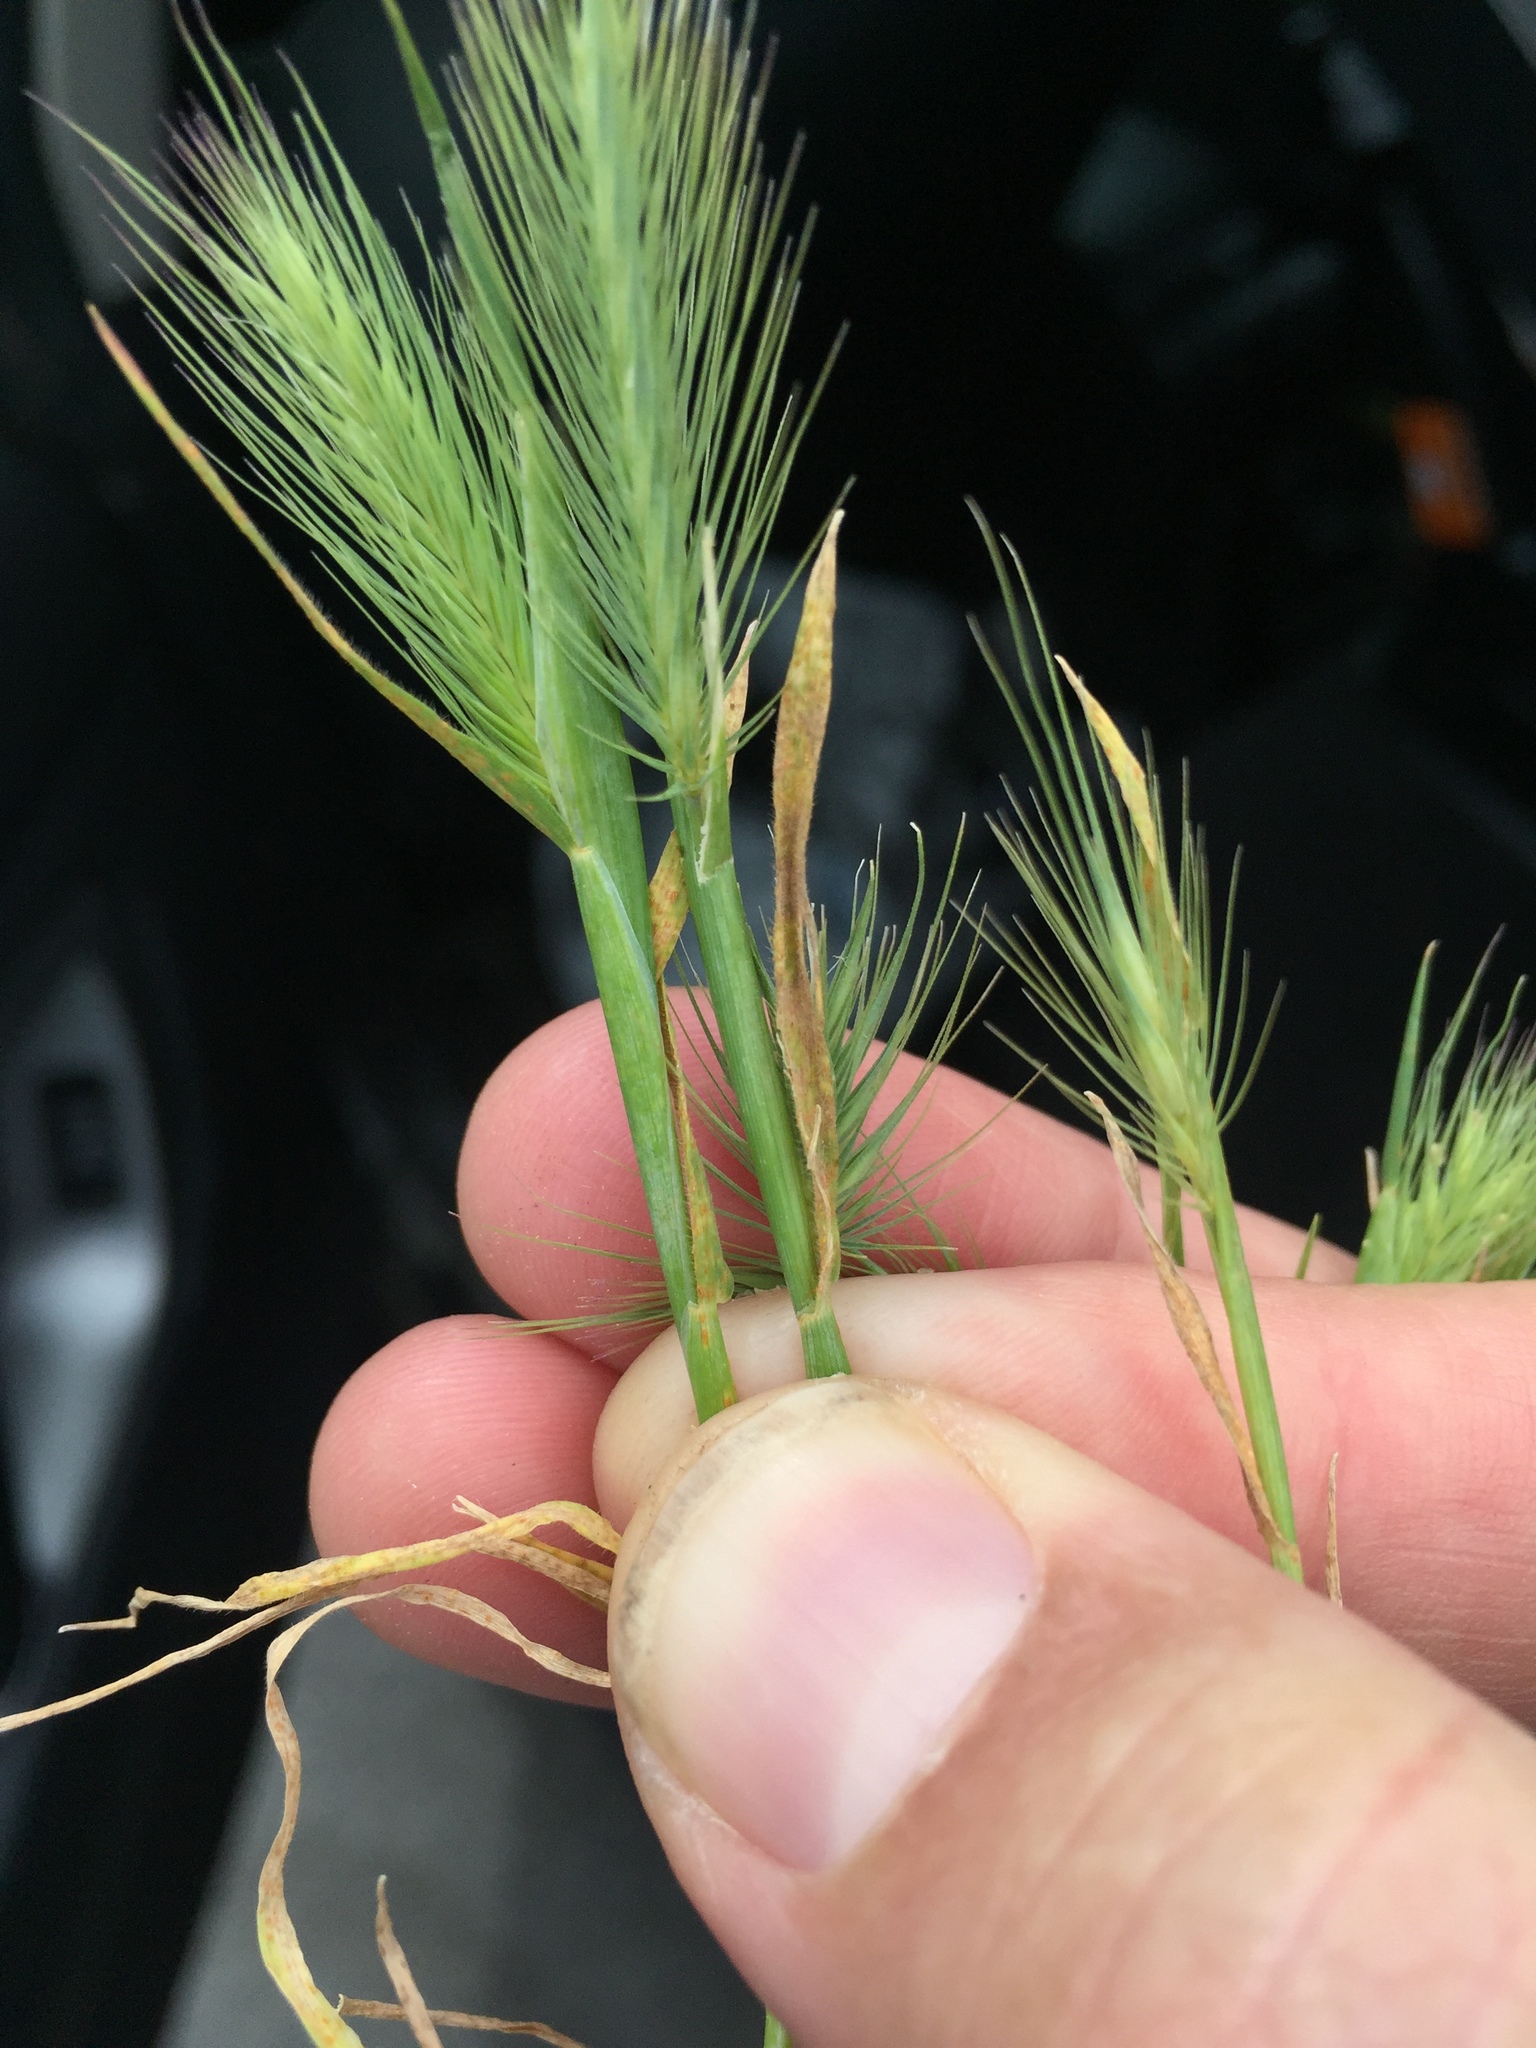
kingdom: Plantae
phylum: Tracheophyta
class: Liliopsida
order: Poales
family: Poaceae
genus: Hordeum
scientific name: Hordeum marinum
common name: Sea barley
